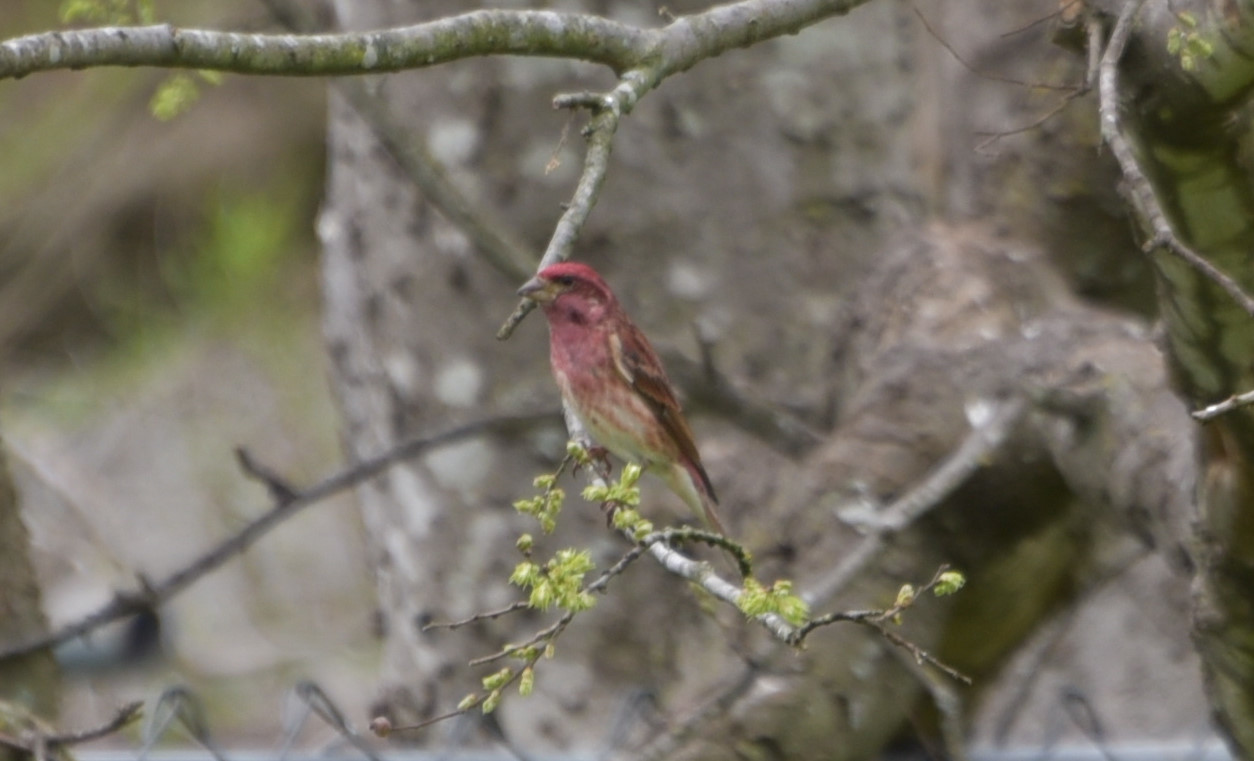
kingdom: Animalia
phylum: Chordata
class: Aves
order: Passeriformes
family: Fringillidae
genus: Haemorhous
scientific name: Haemorhous purpureus
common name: Purple finch
